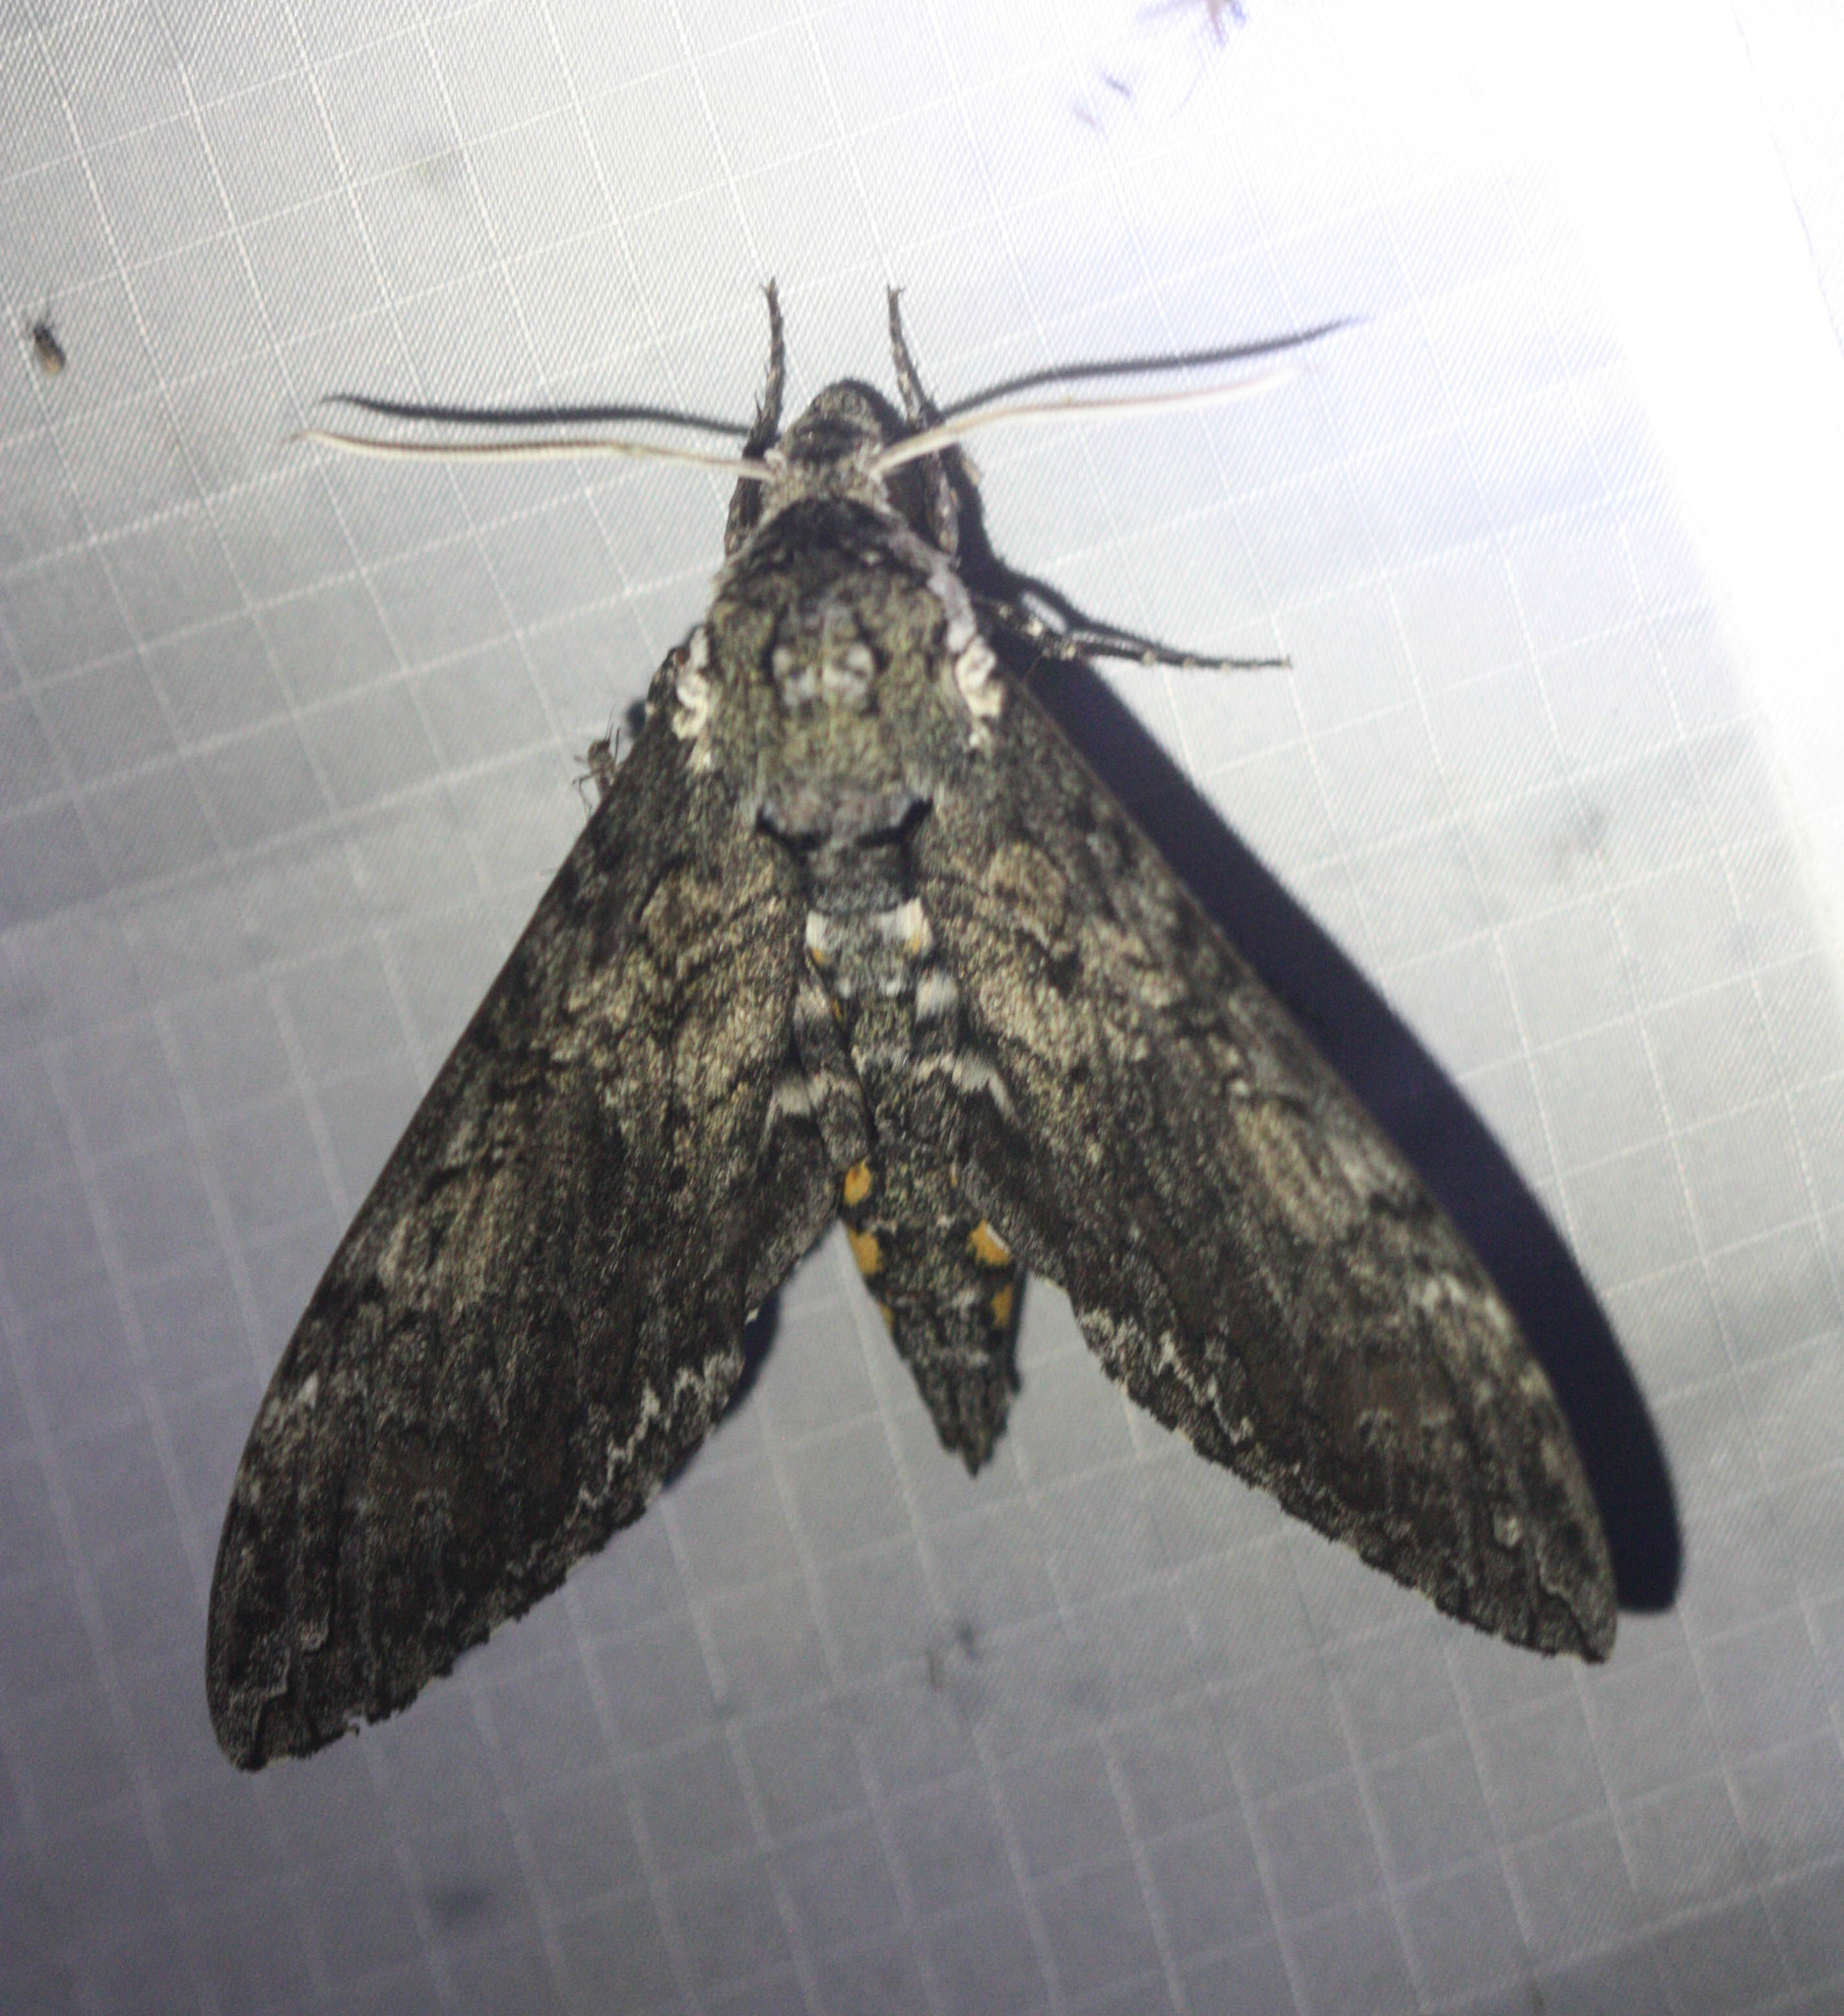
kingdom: Animalia
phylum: Arthropoda
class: Insecta
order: Lepidoptera
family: Sphingidae
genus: Manduca
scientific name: Manduca sexta
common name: Carolina sphinx
